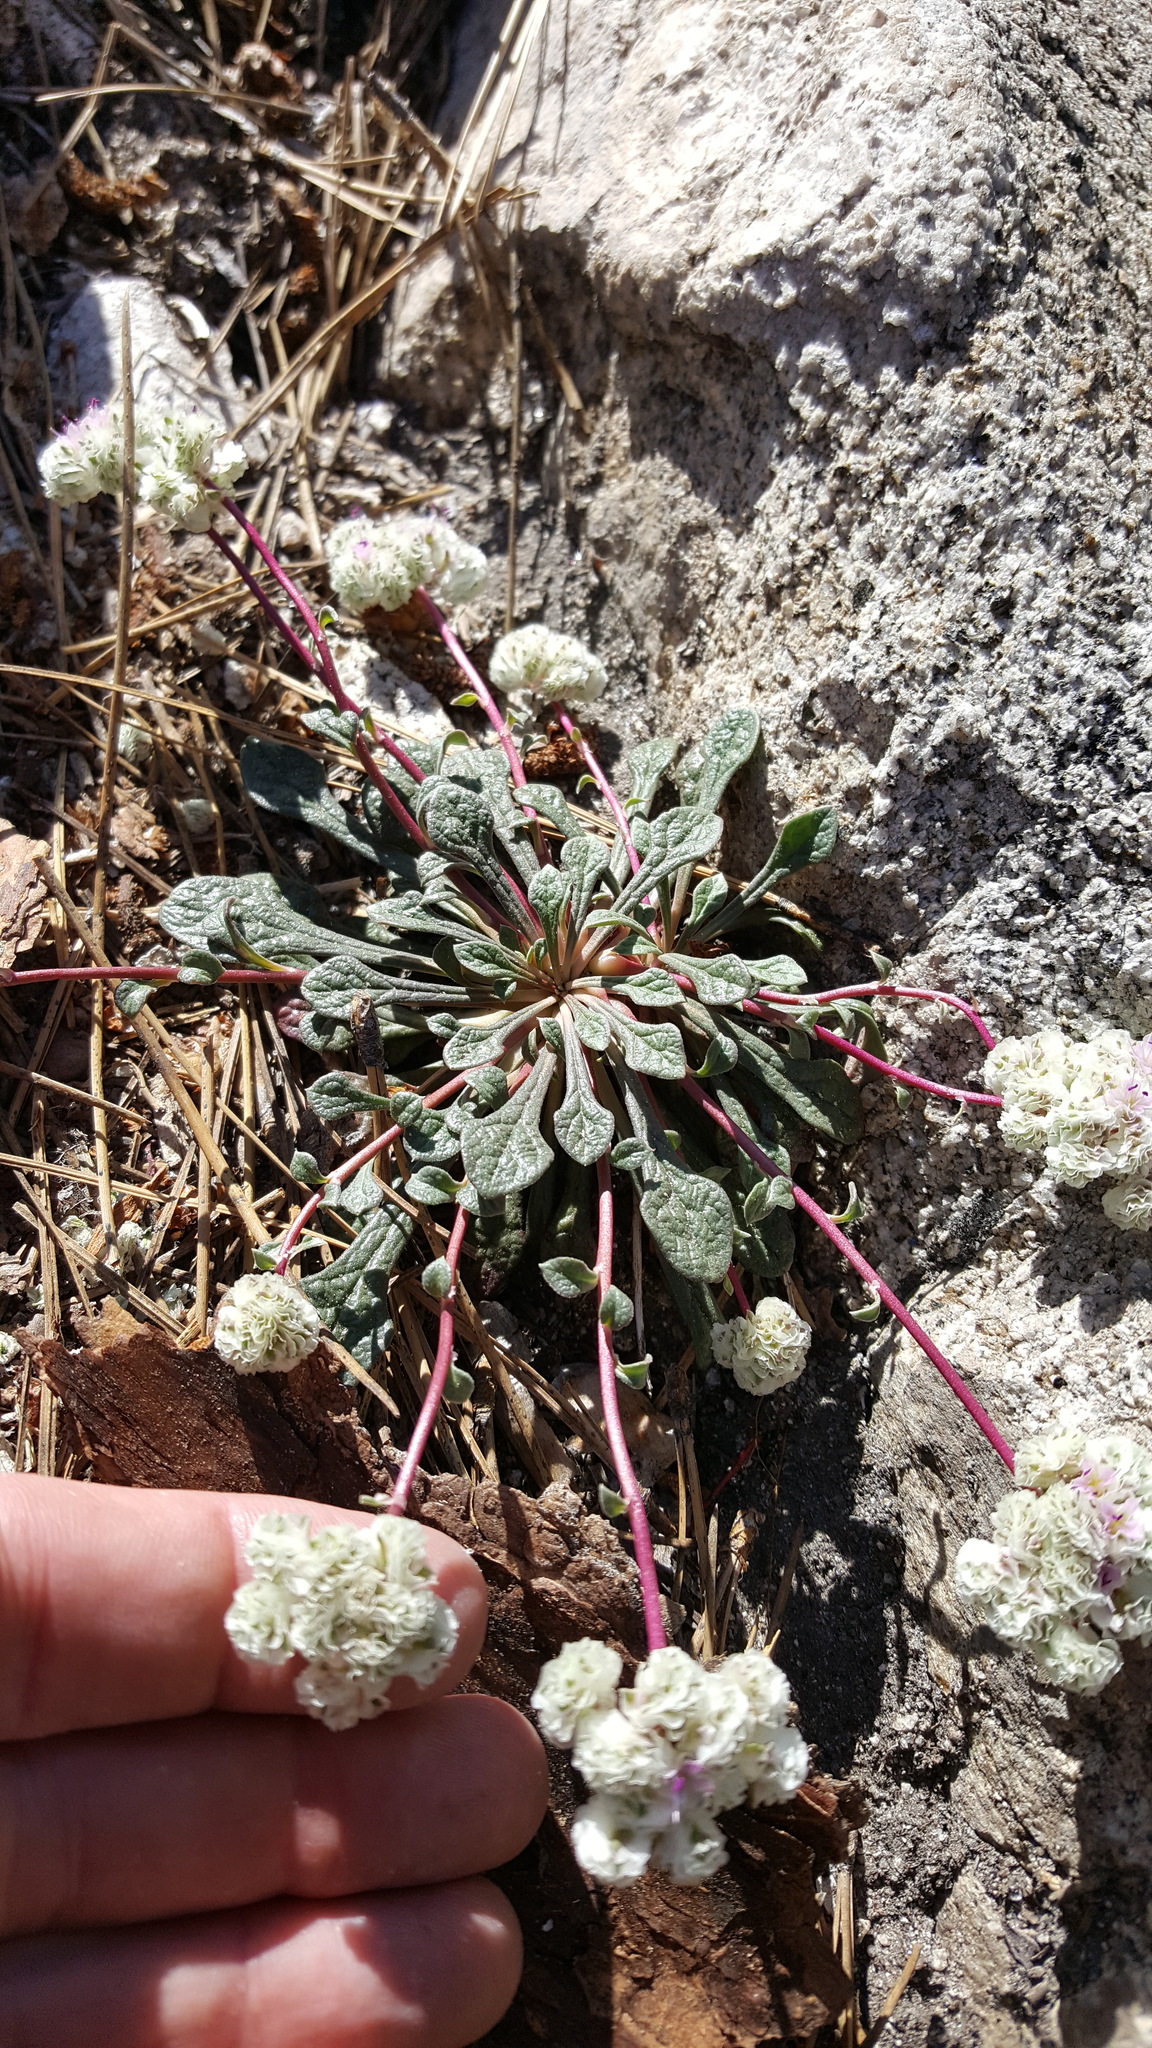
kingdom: Plantae
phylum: Tracheophyta
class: Magnoliopsida
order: Caryophyllales
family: Montiaceae
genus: Calyptridium
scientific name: Calyptridium monospermum
